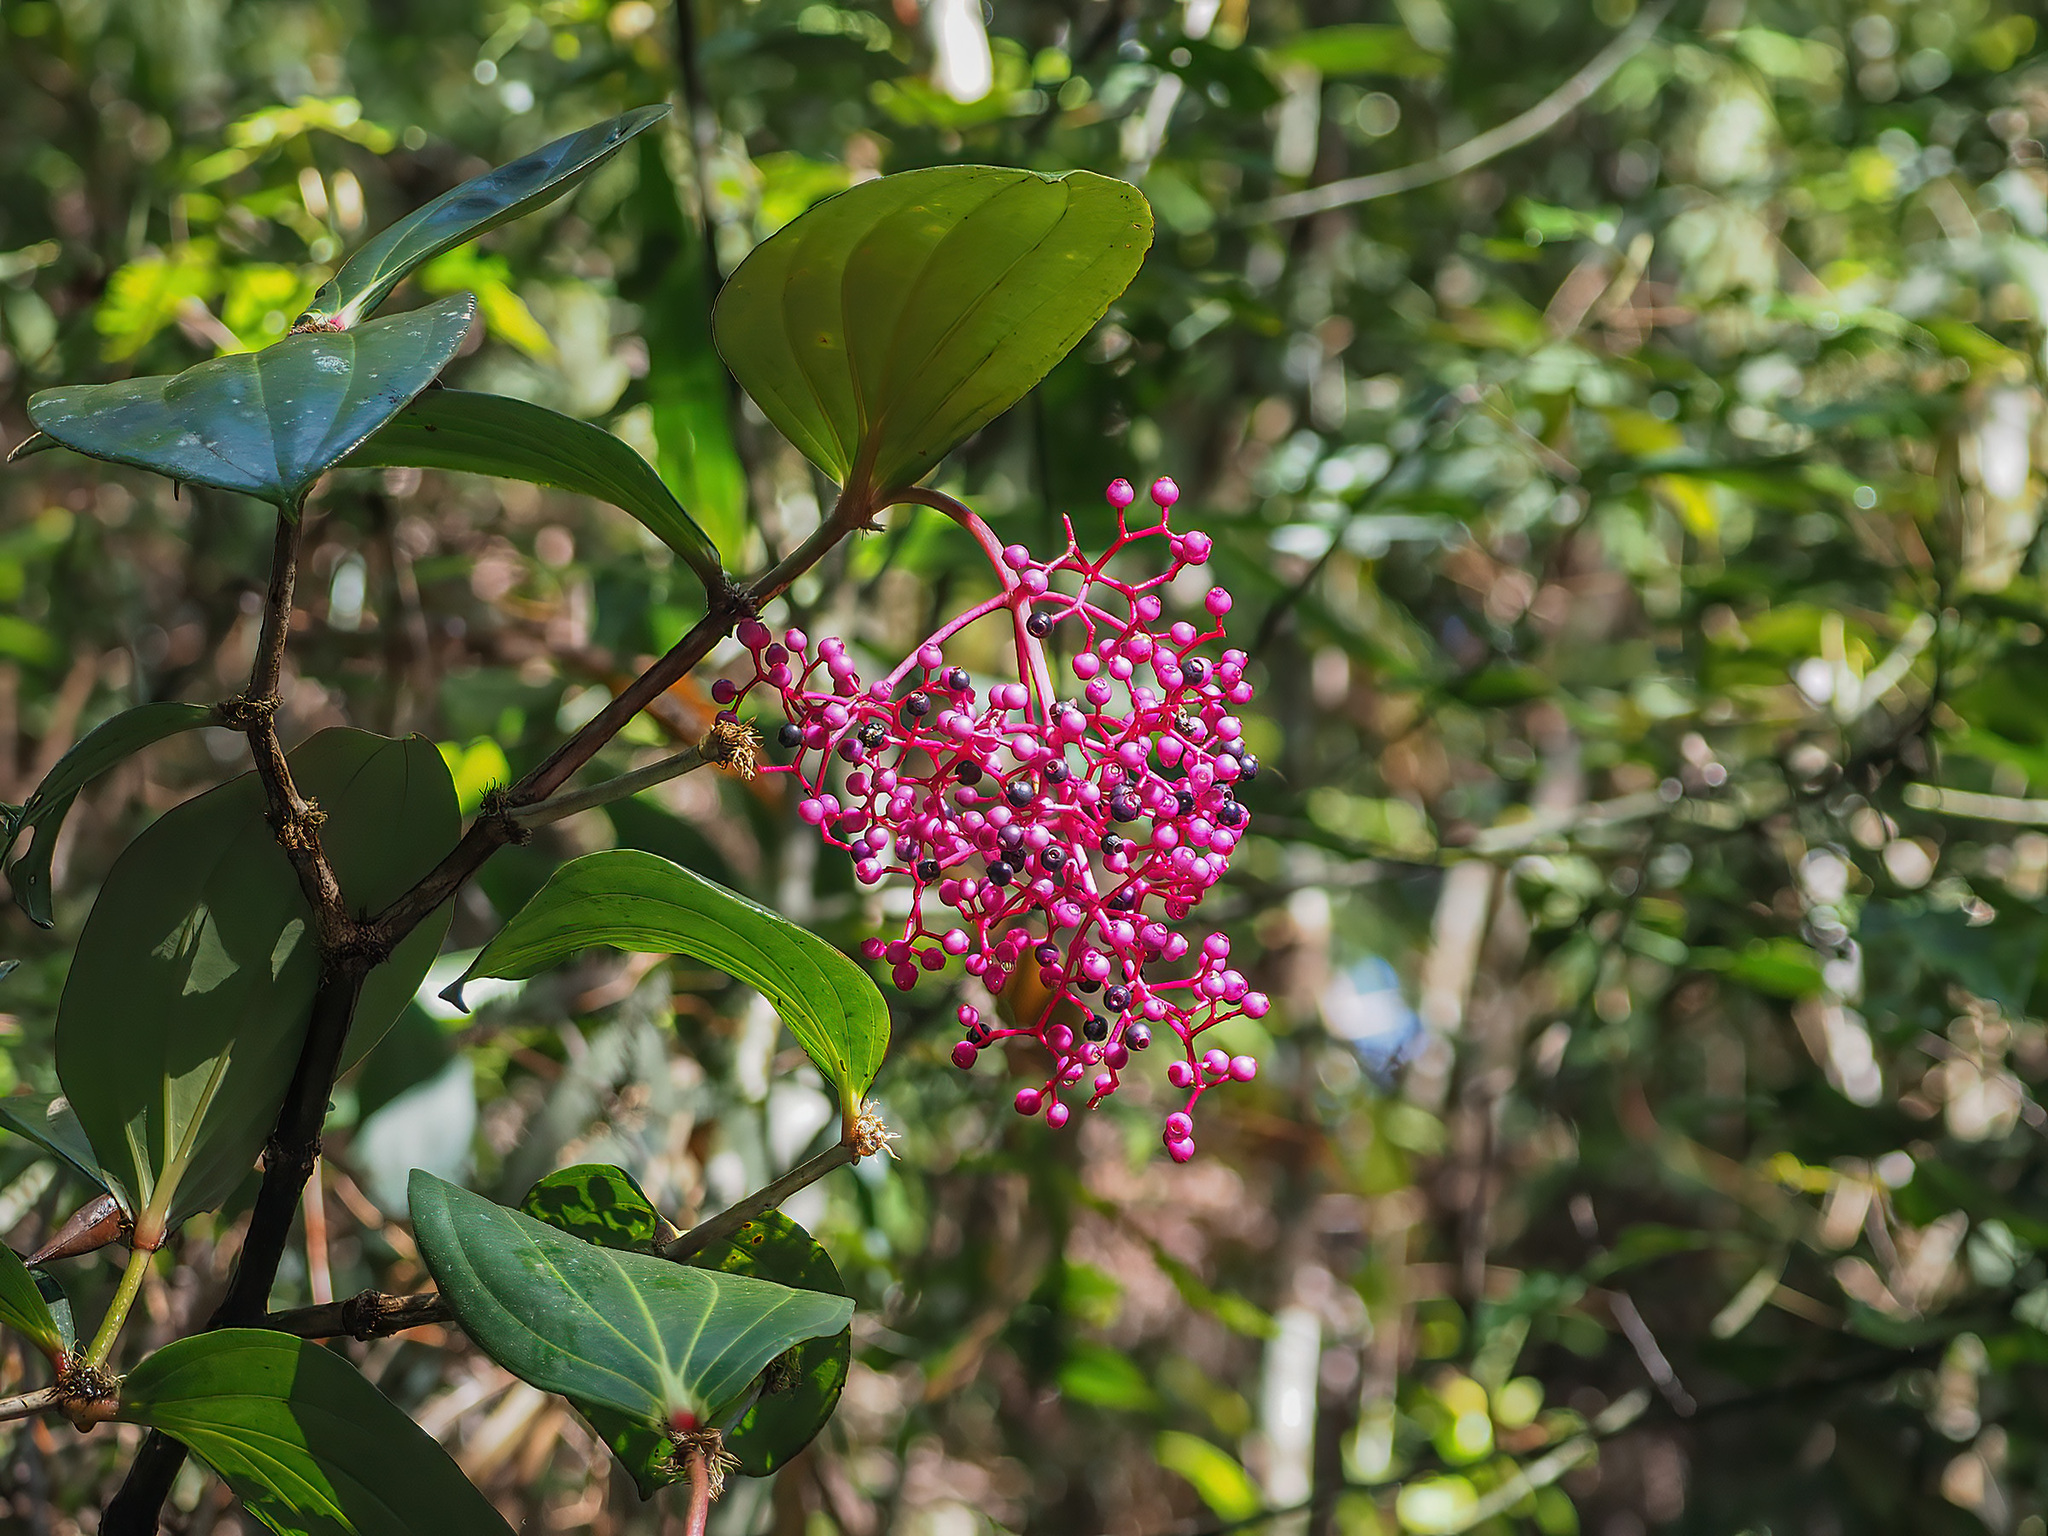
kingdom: Plantae
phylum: Tracheophyta
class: Magnoliopsida
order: Myrtales
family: Melastomataceae
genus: Medinilla
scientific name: Medinilla speciosa
